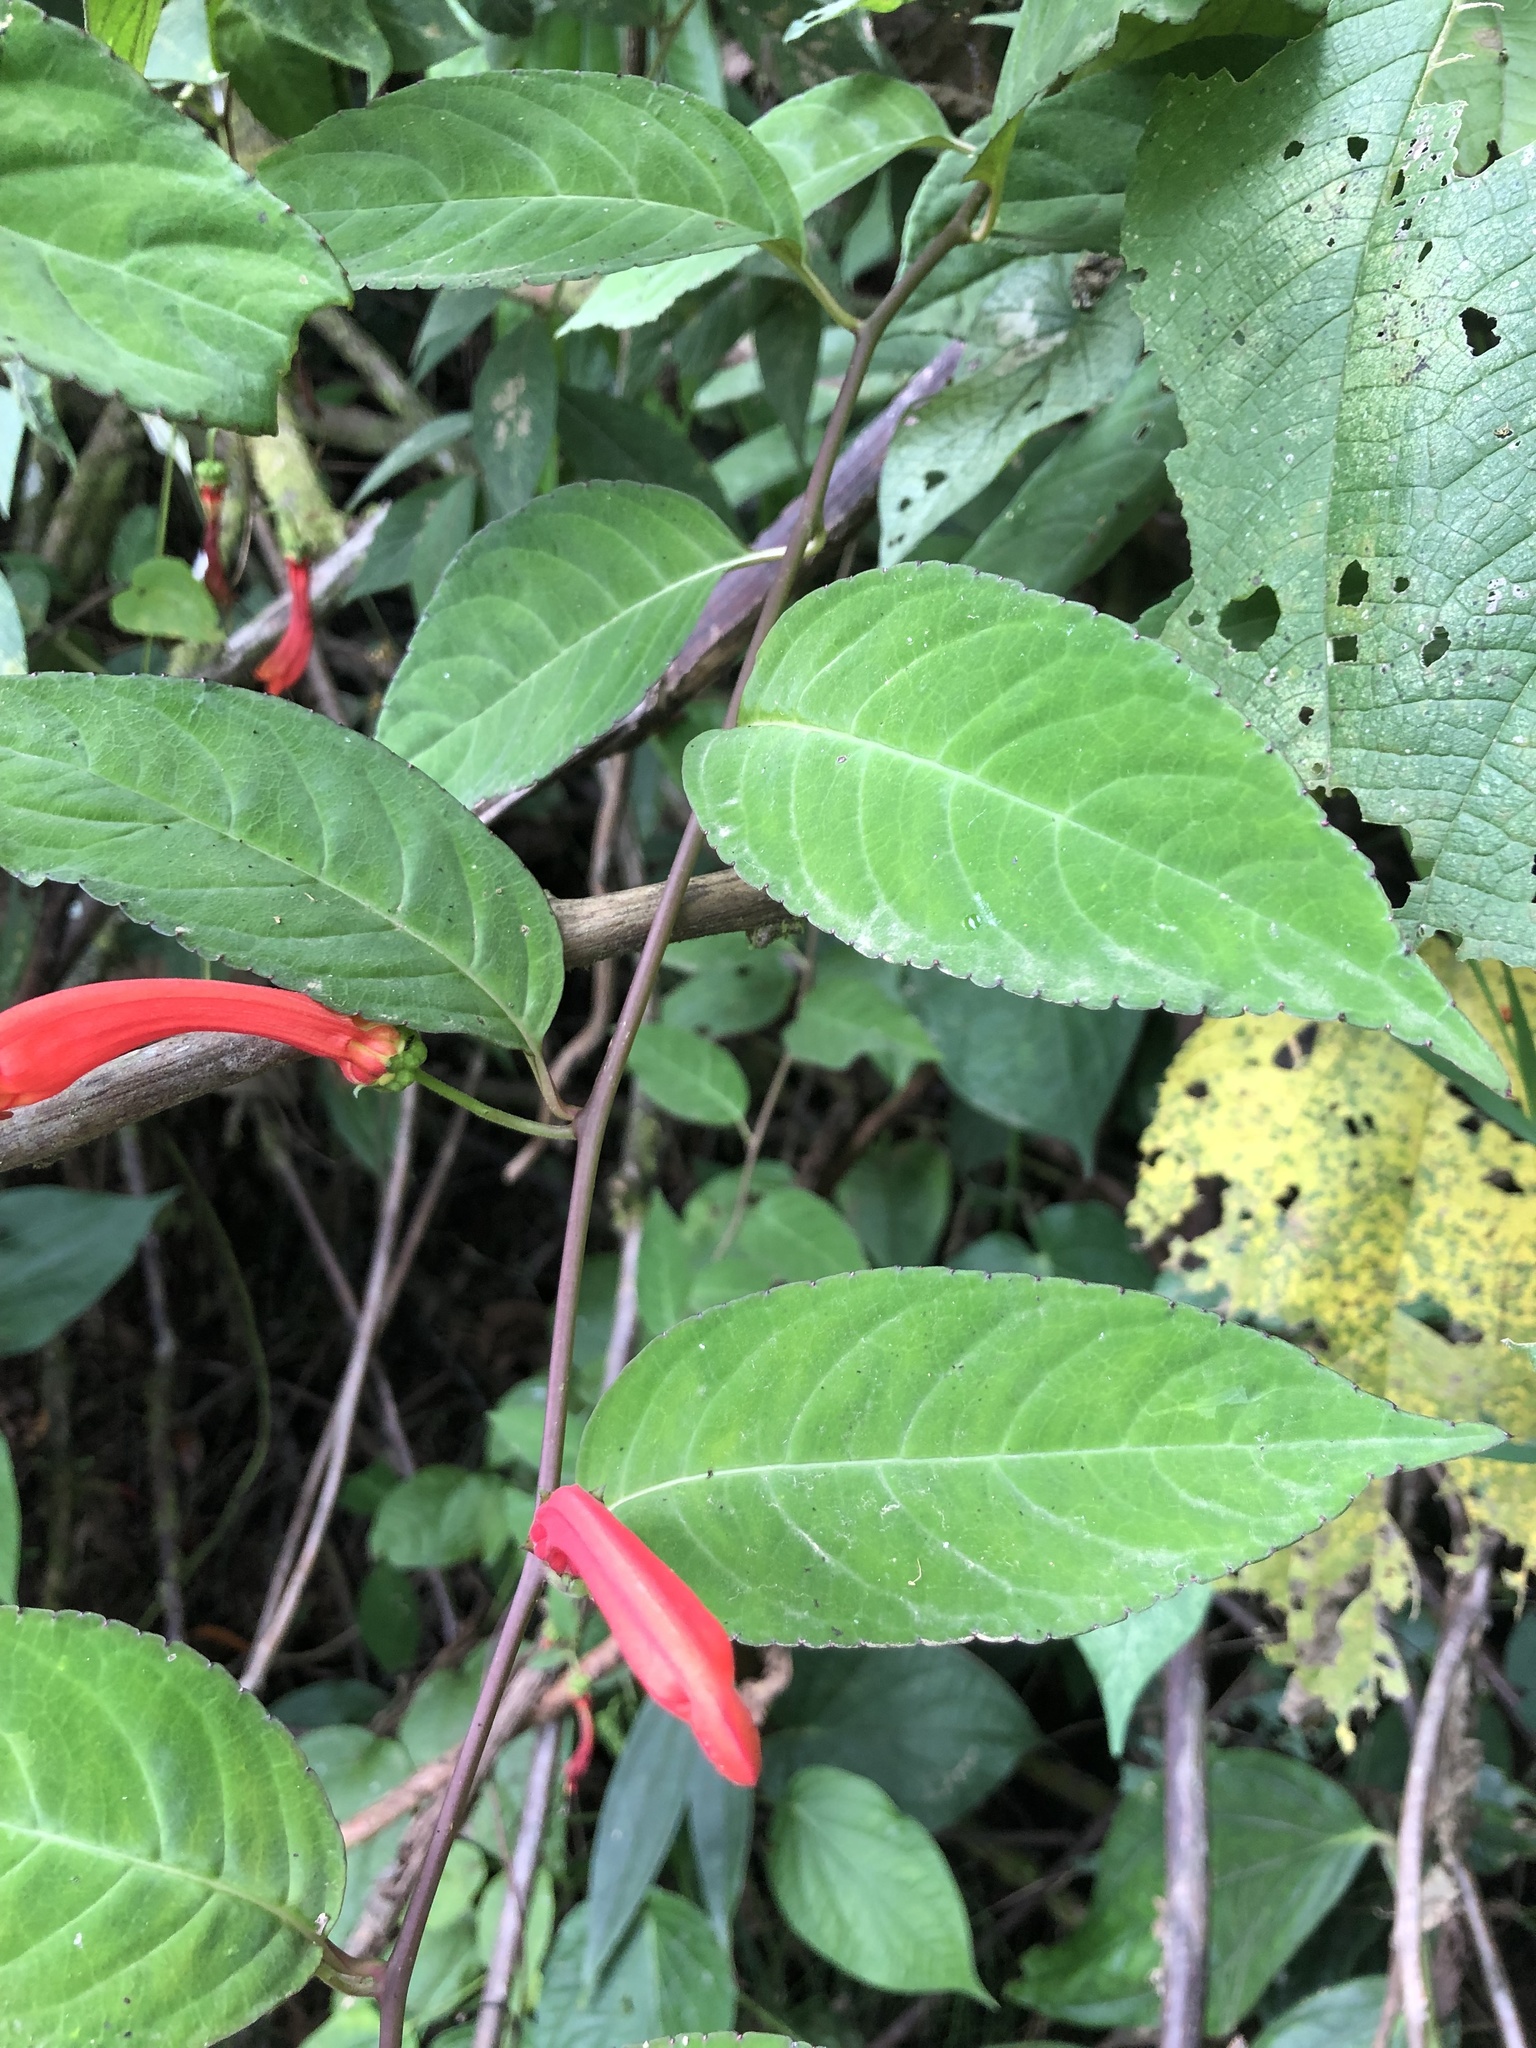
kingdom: Plantae
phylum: Tracheophyta
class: Magnoliopsida
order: Asterales
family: Campanulaceae
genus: Centropogon
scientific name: Centropogon trianae
